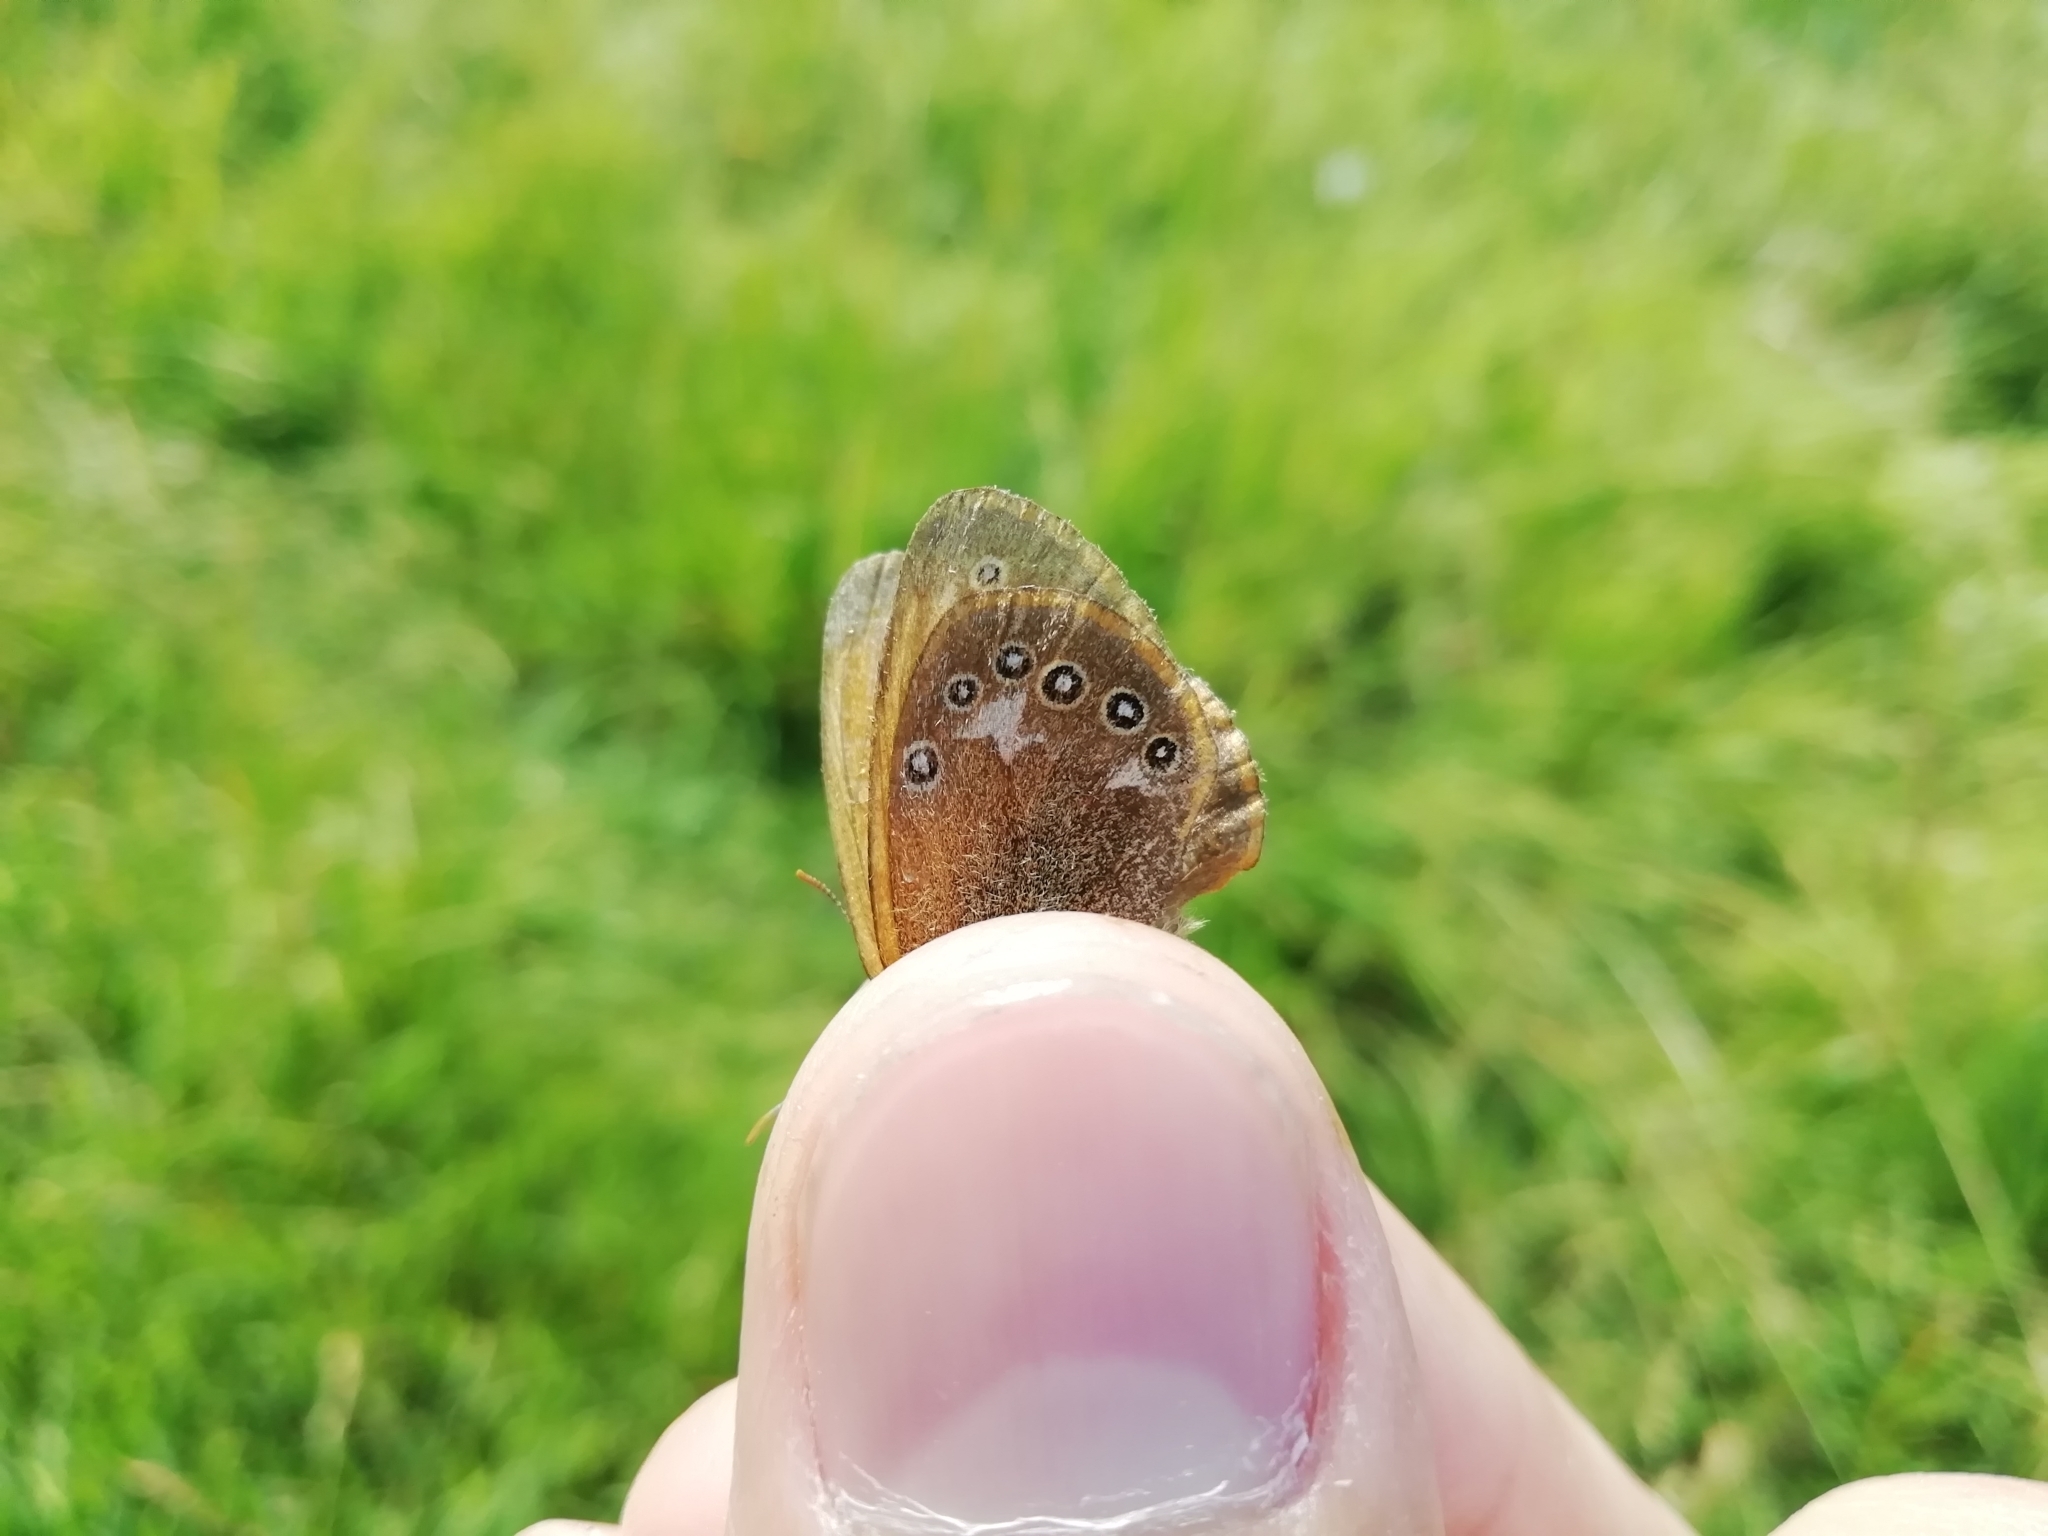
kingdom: Animalia
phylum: Arthropoda
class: Insecta
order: Lepidoptera
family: Nymphalidae
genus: Coenonympha
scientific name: Coenonympha iphis
